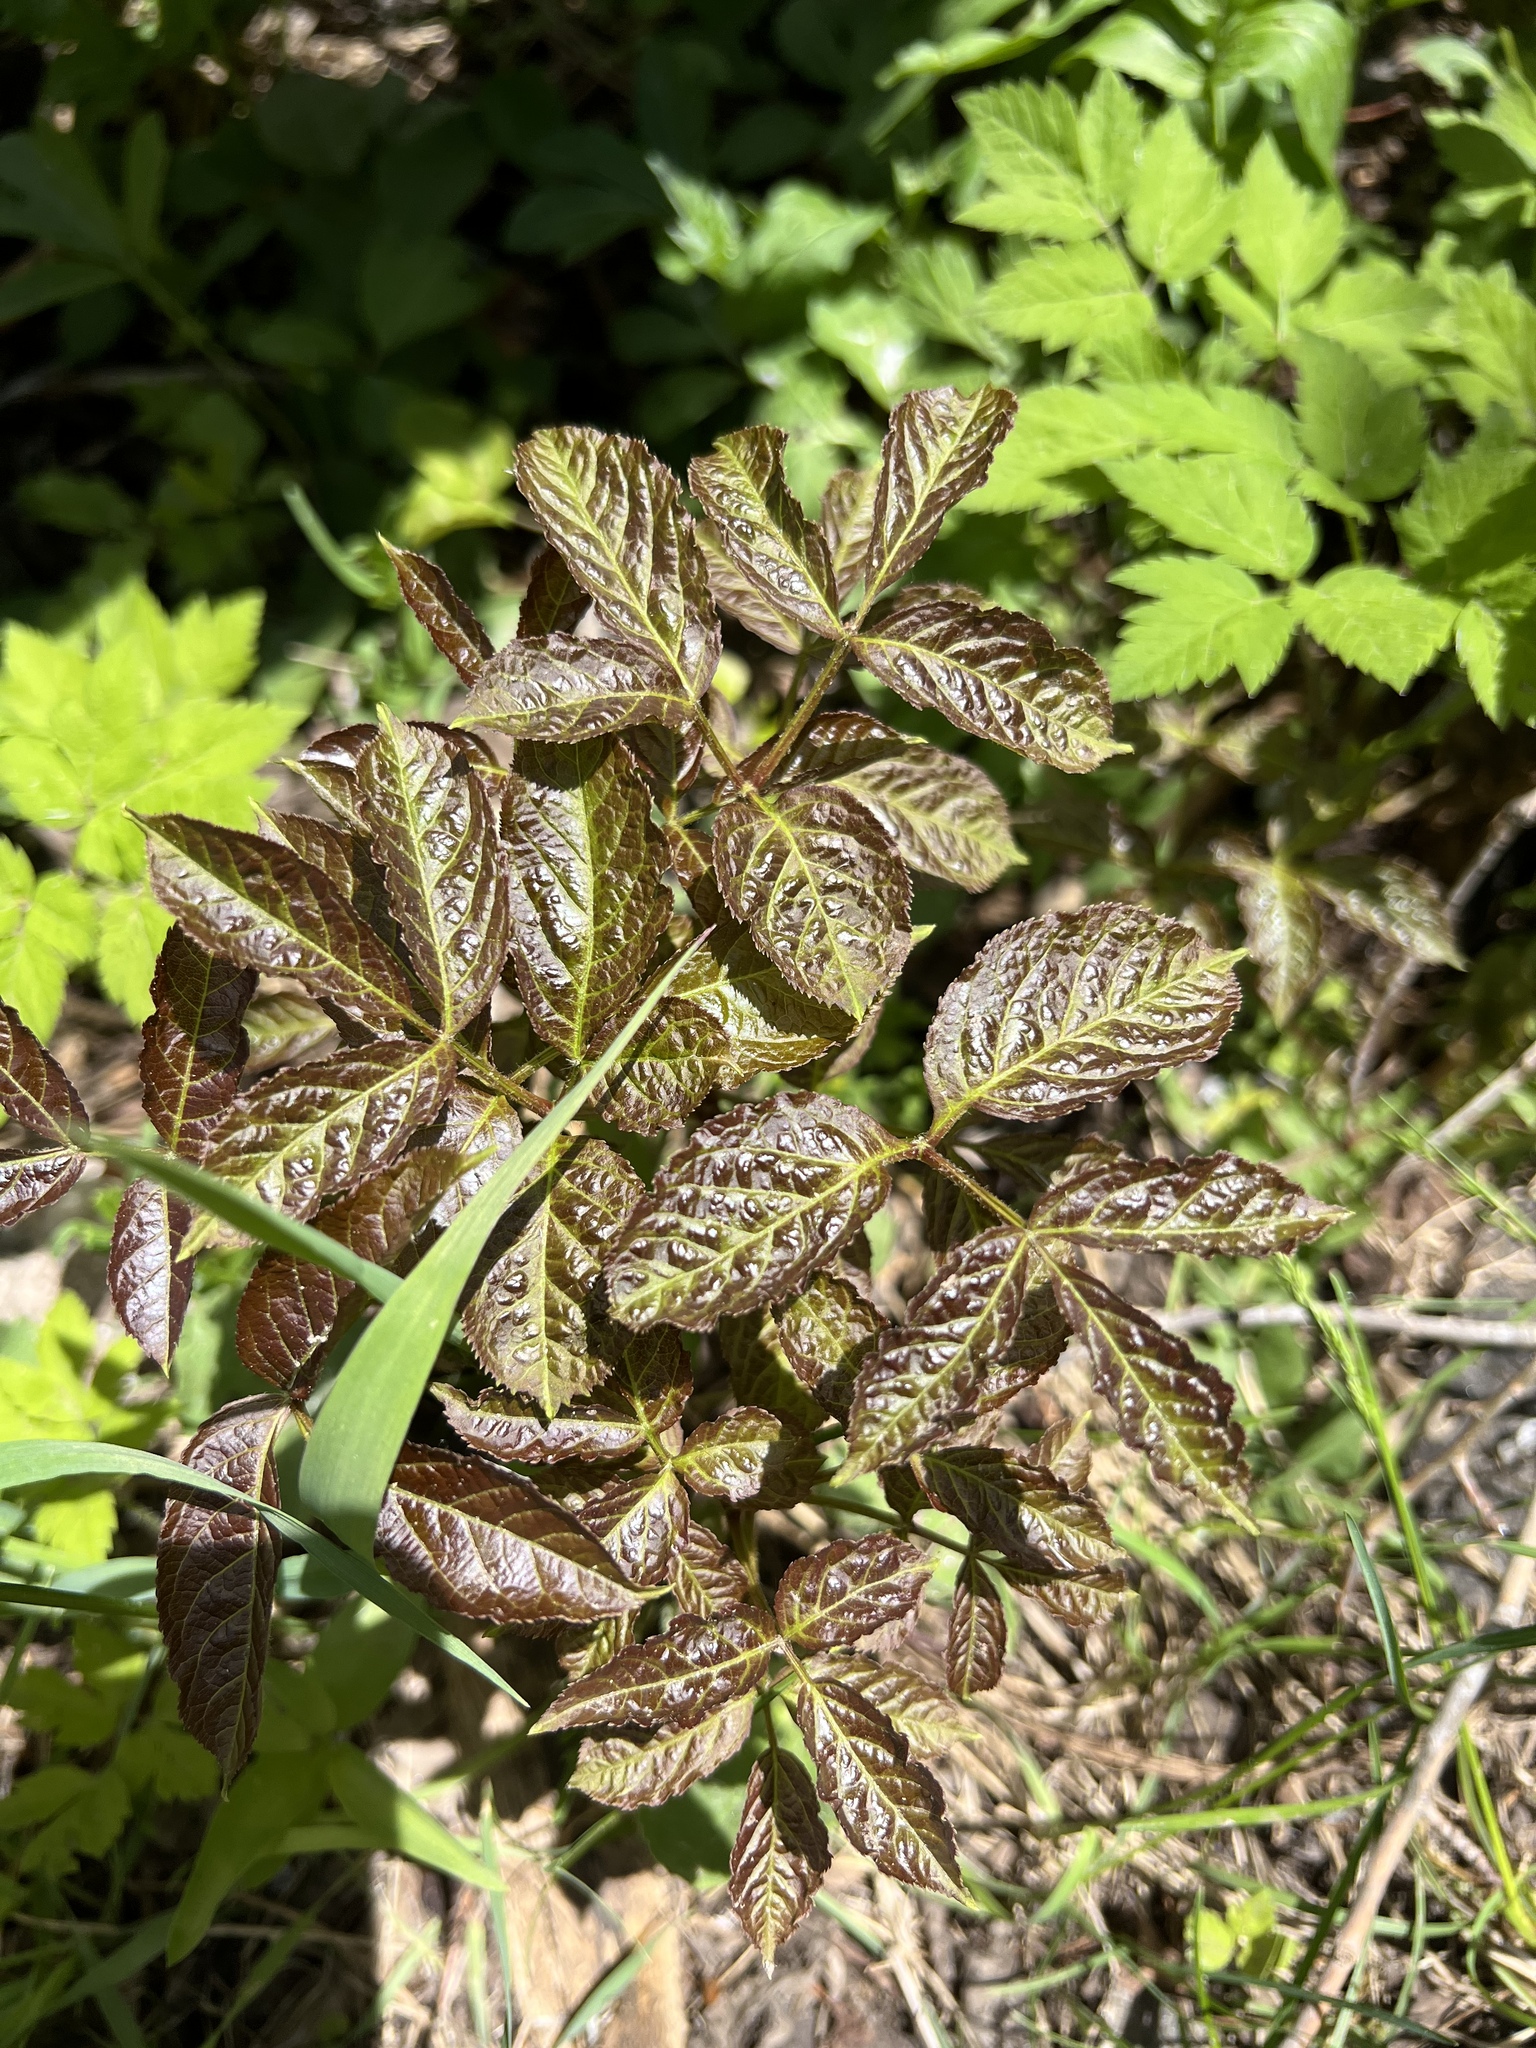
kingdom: Plantae
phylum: Tracheophyta
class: Magnoliopsida
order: Apiales
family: Araliaceae
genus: Aralia
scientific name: Aralia nudicaulis
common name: Wild sarsaparilla
